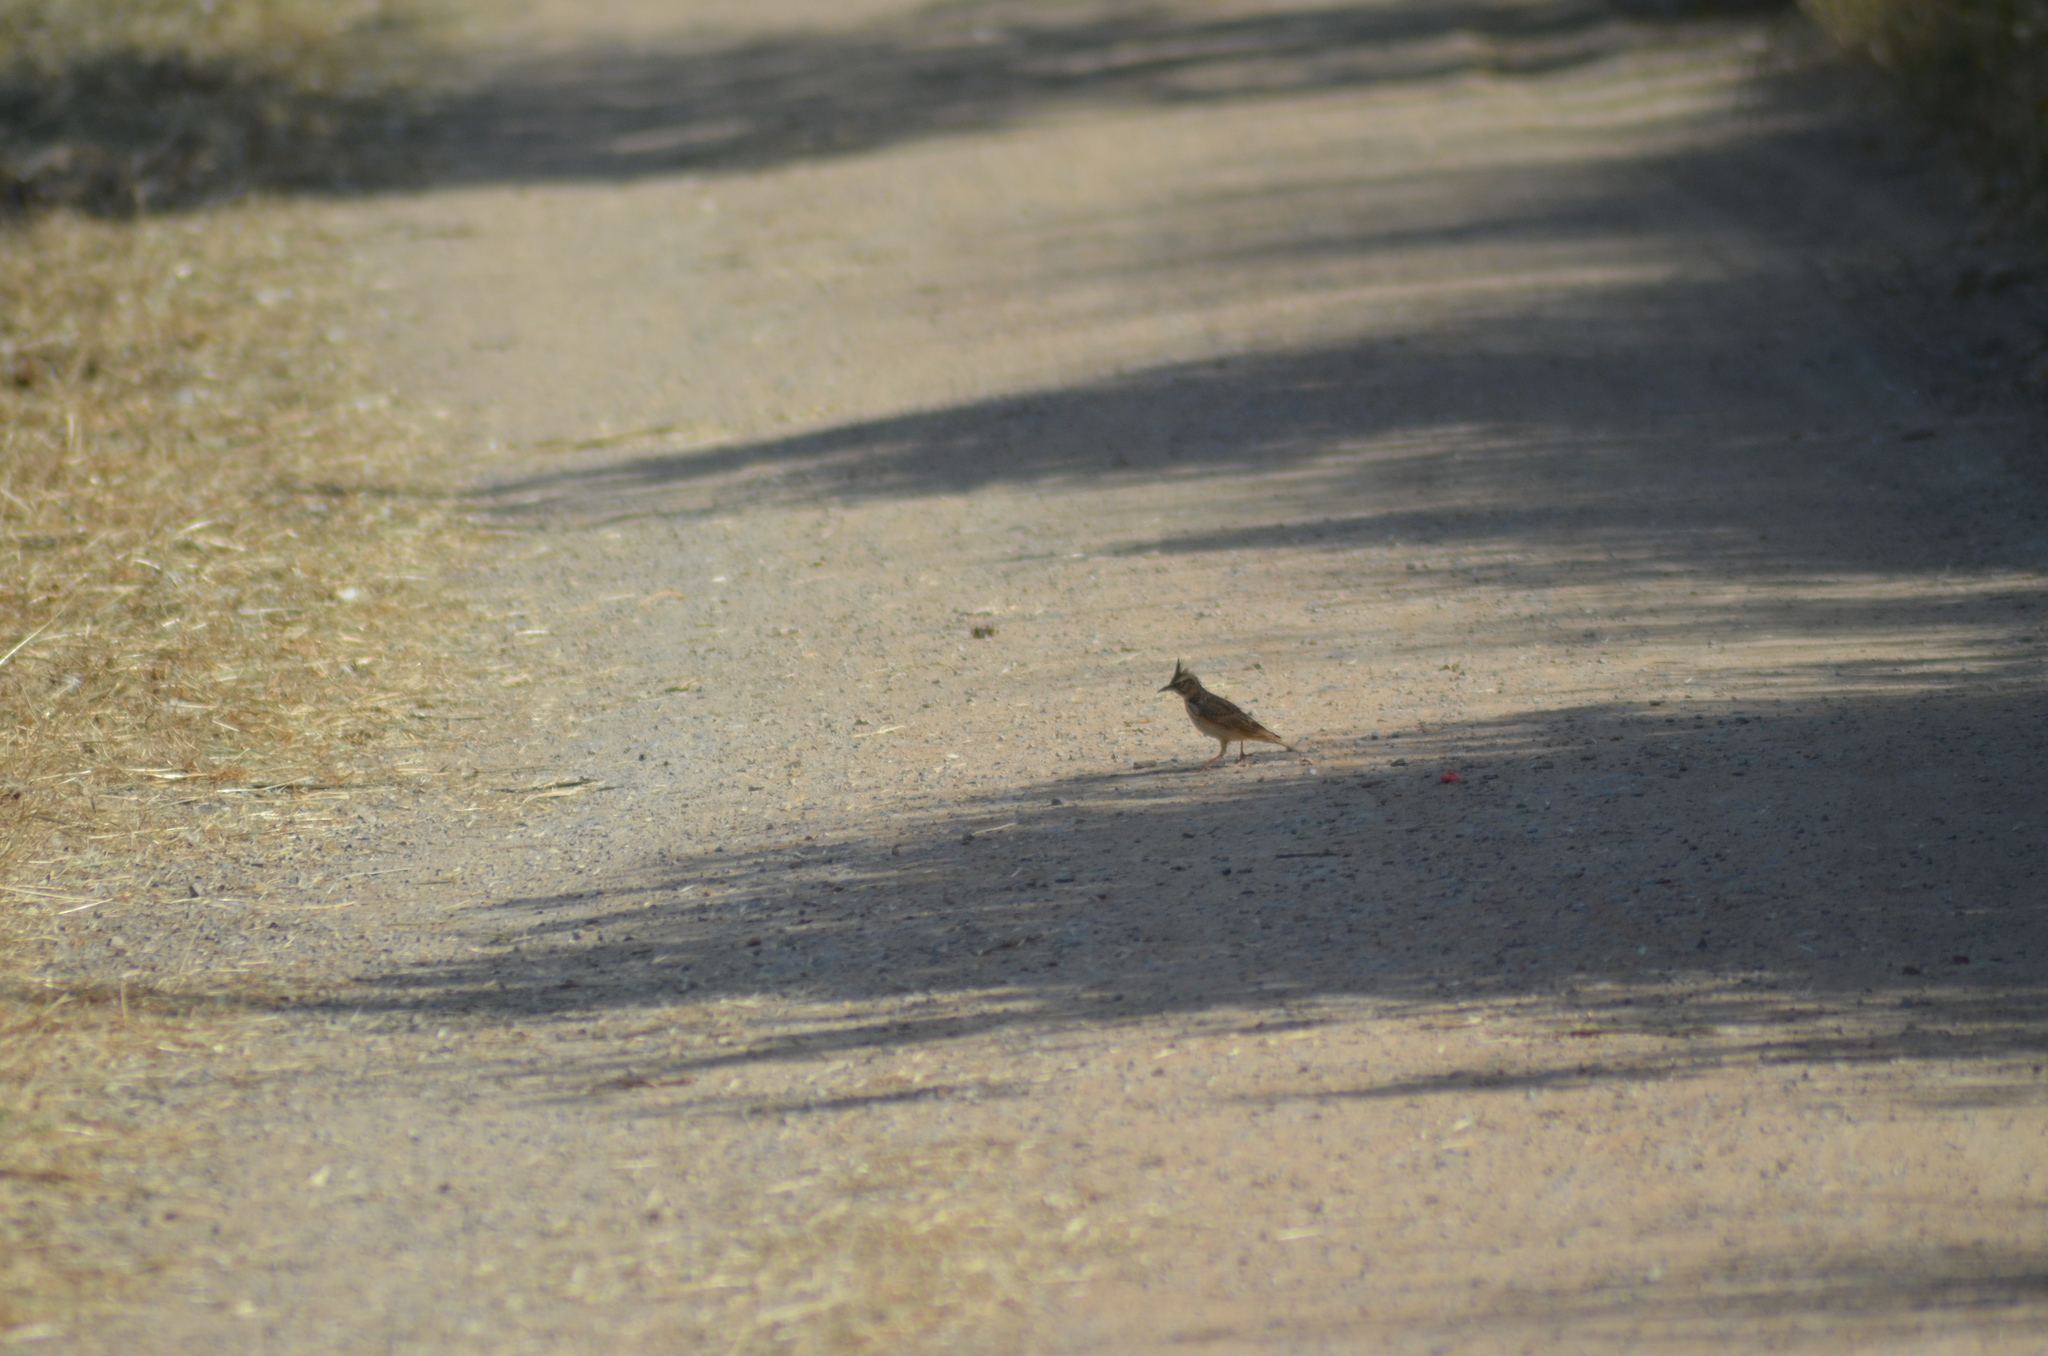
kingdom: Animalia
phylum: Chordata
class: Aves
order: Passeriformes
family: Alaudidae
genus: Galerida
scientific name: Galerida cristata
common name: Crested lark
